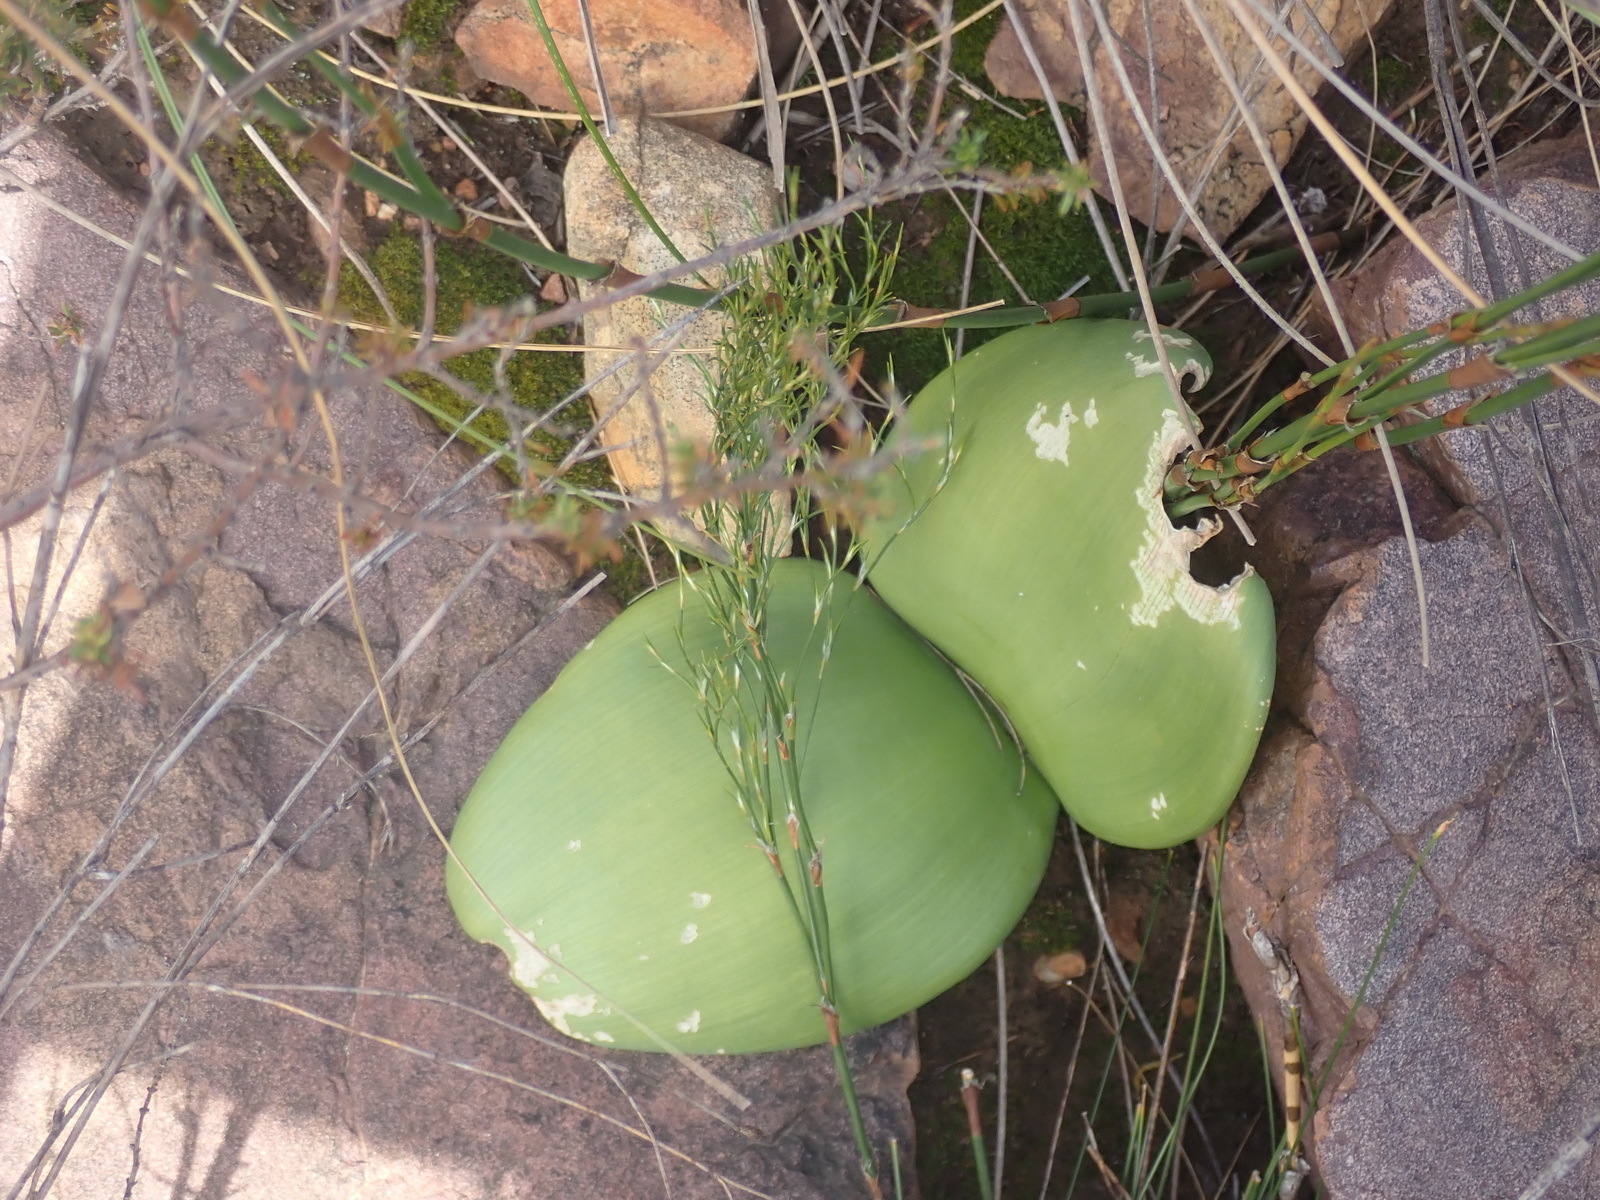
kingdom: Plantae
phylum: Tracheophyta
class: Liliopsida
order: Asparagales
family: Amaryllidaceae
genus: Haemanthus
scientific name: Haemanthus coccineus
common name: Cape-tulip
